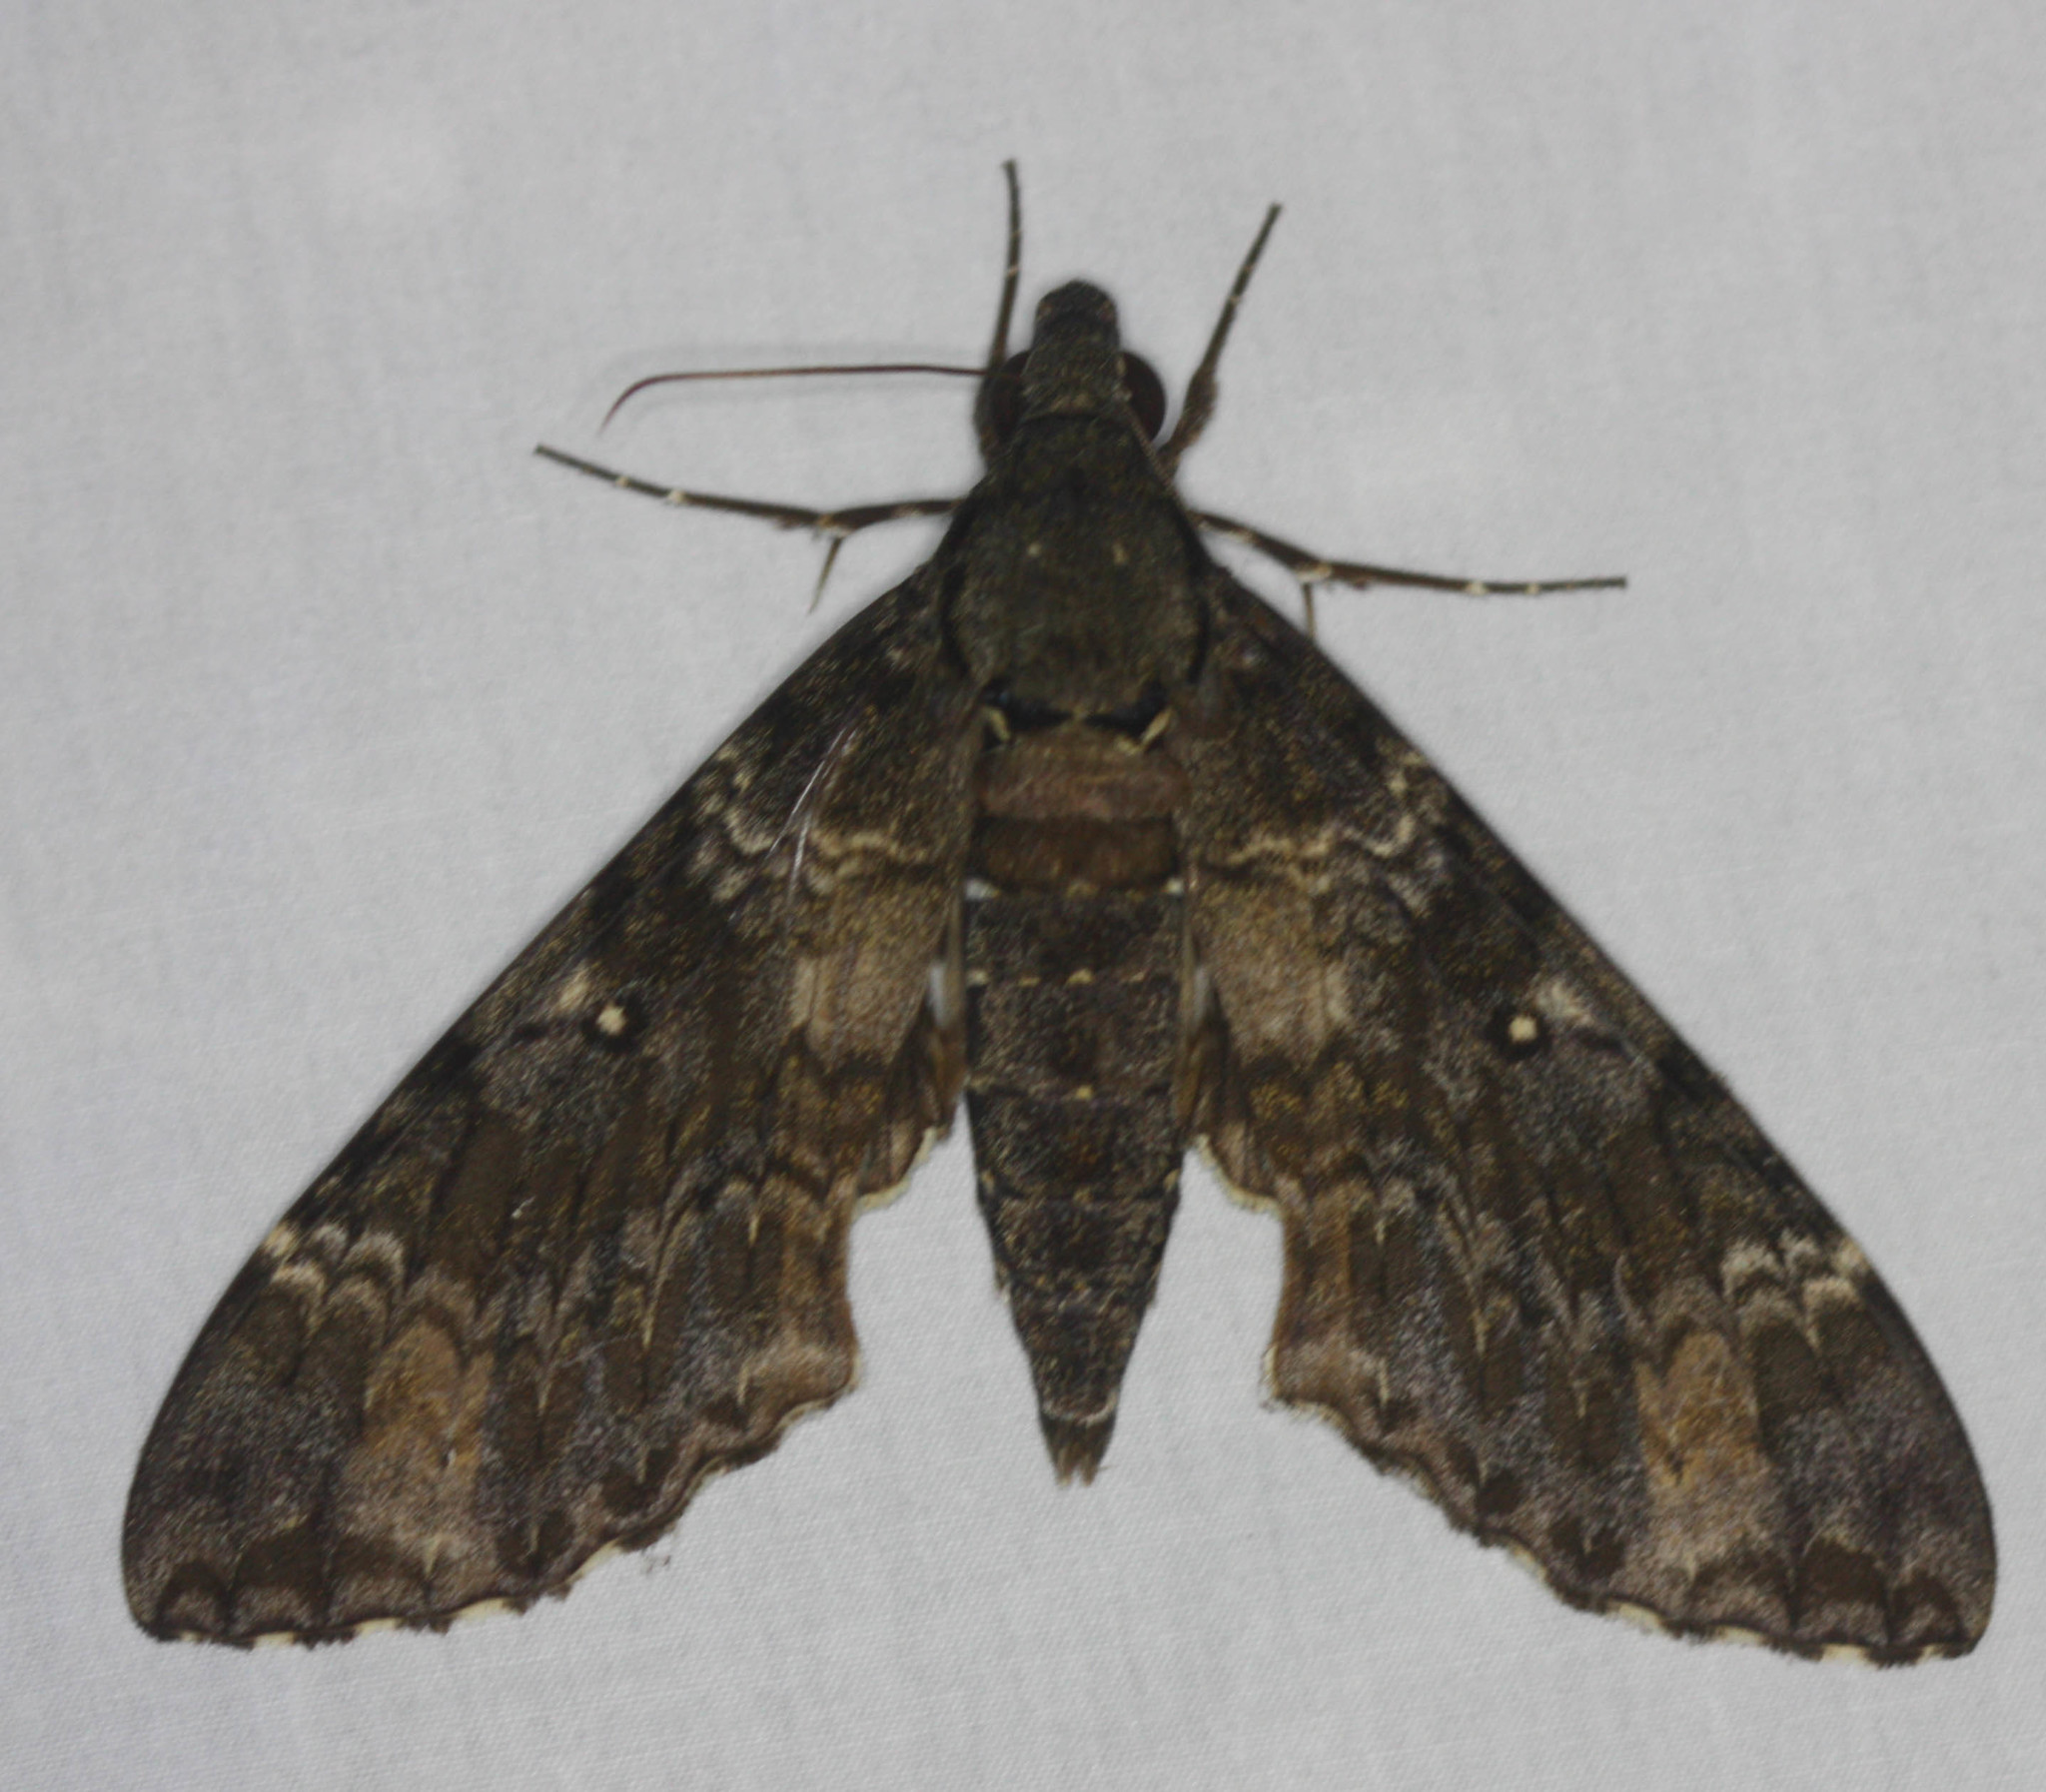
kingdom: Animalia
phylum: Arthropoda
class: Insecta
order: Lepidoptera
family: Sphingidae
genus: Meganoton
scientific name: Meganoton nyctiphanes
